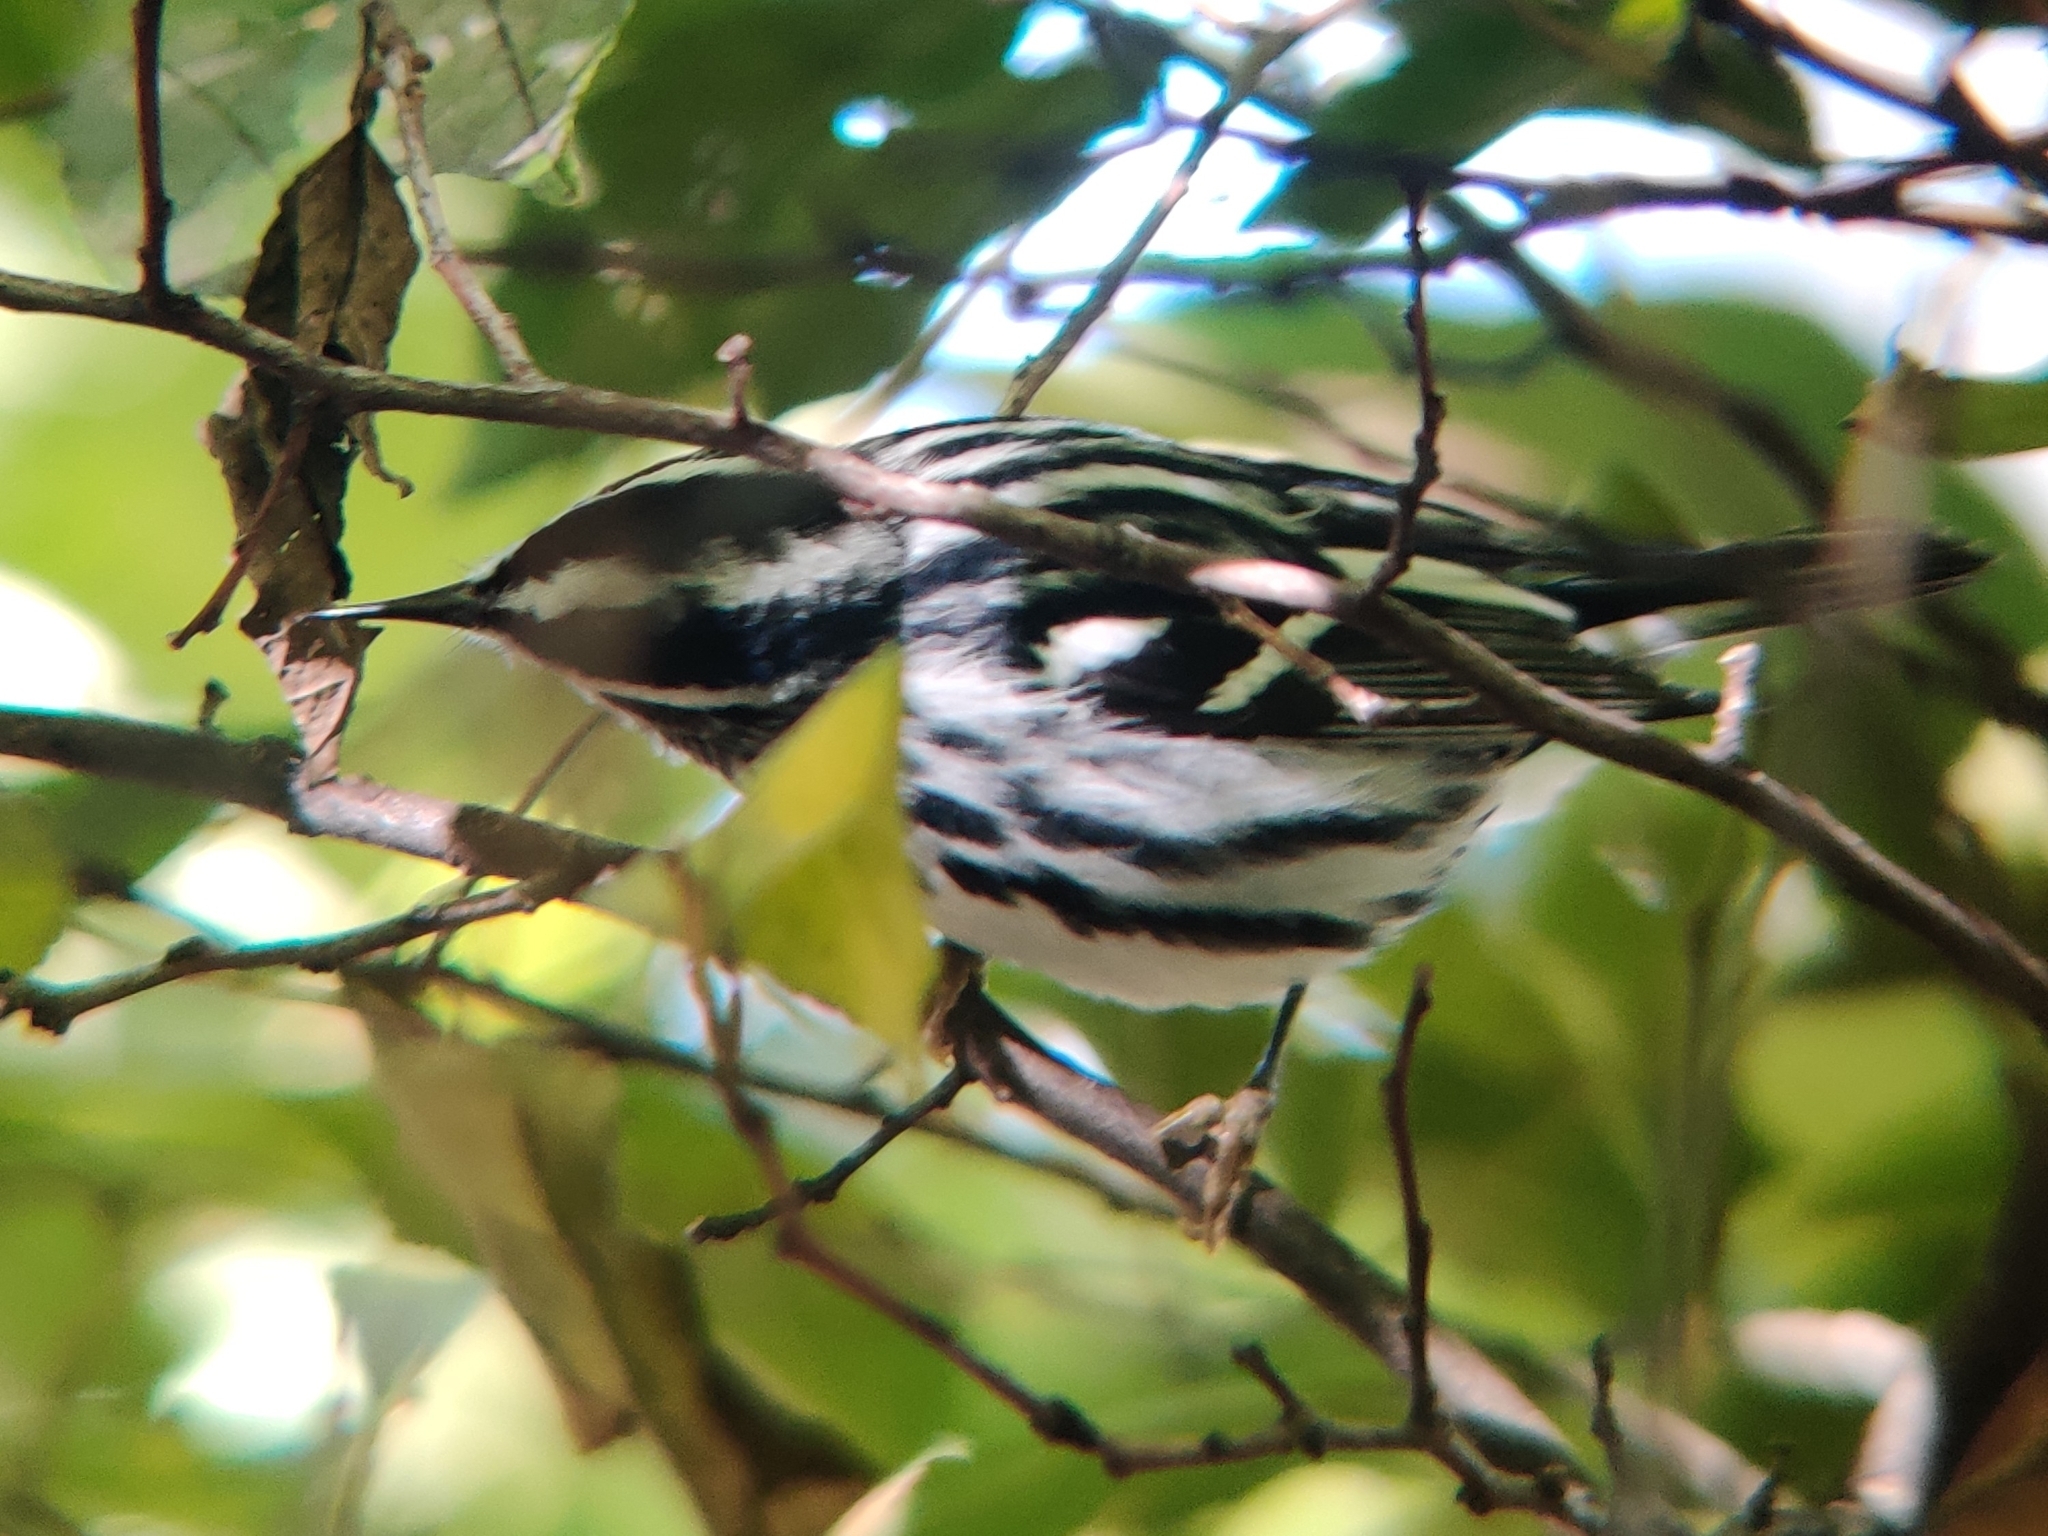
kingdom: Animalia
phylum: Chordata
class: Aves
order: Passeriformes
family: Parulidae
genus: Mniotilta
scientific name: Mniotilta varia
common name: Black-and-white warbler
